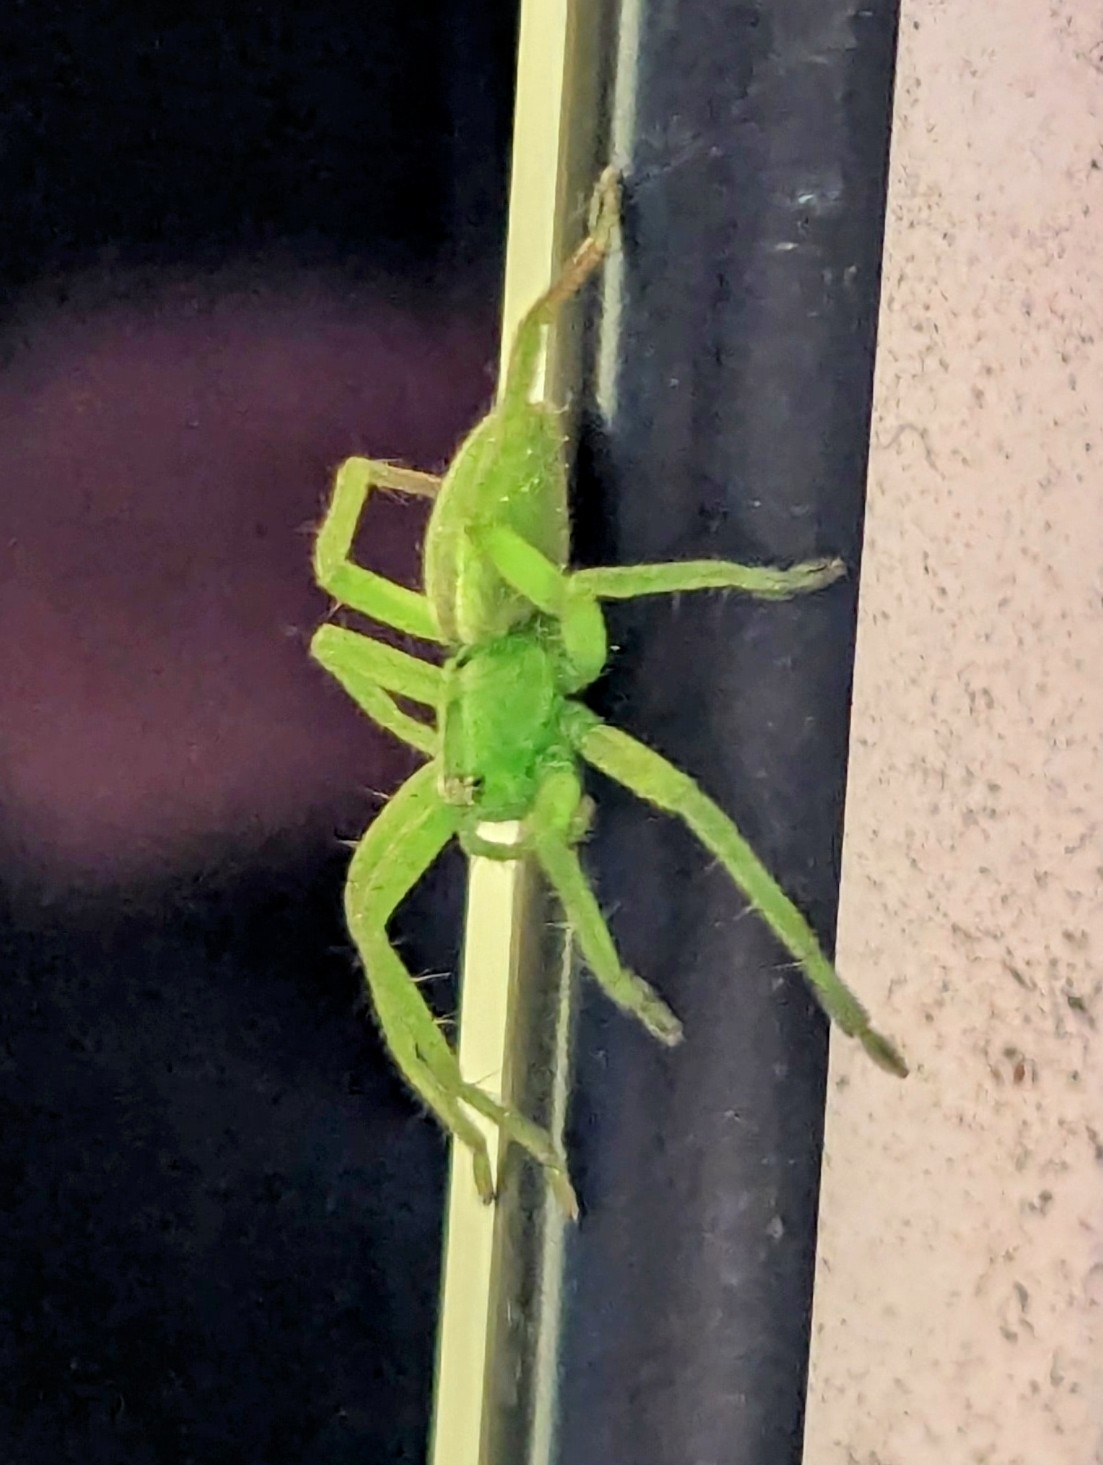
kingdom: Animalia
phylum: Arthropoda
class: Arachnida
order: Araneae
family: Sparassidae
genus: Micrommata
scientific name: Micrommata ligurina
